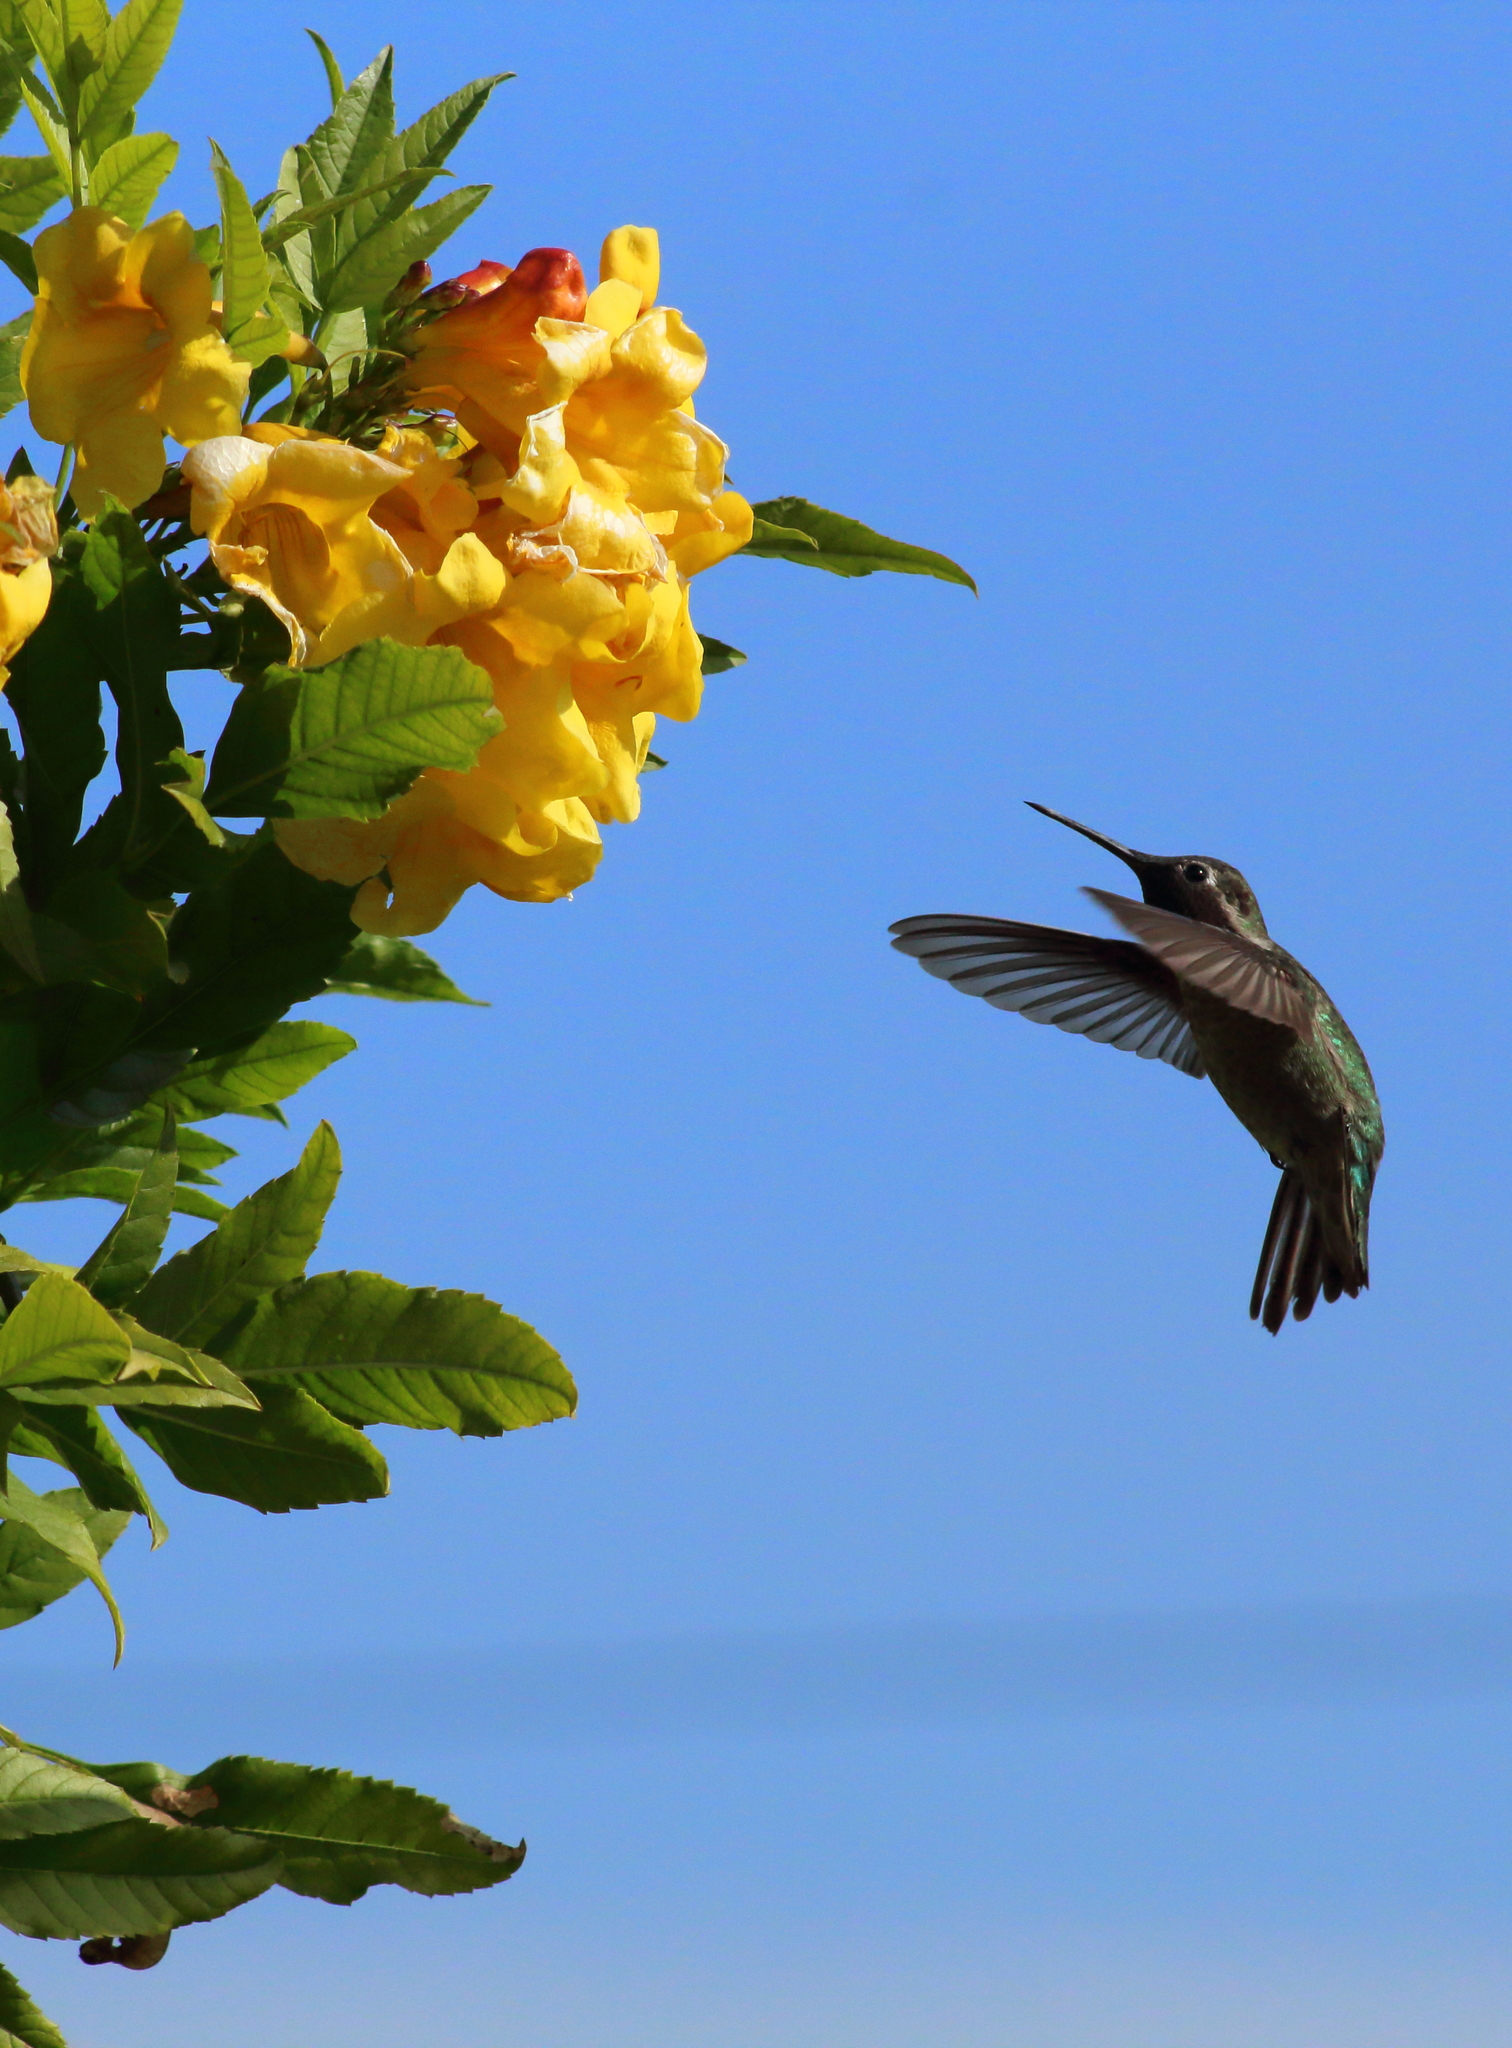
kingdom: Animalia
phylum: Chordata
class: Aves
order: Apodiformes
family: Trochilidae
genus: Calypte
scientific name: Calypte anna
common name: Anna's hummingbird
